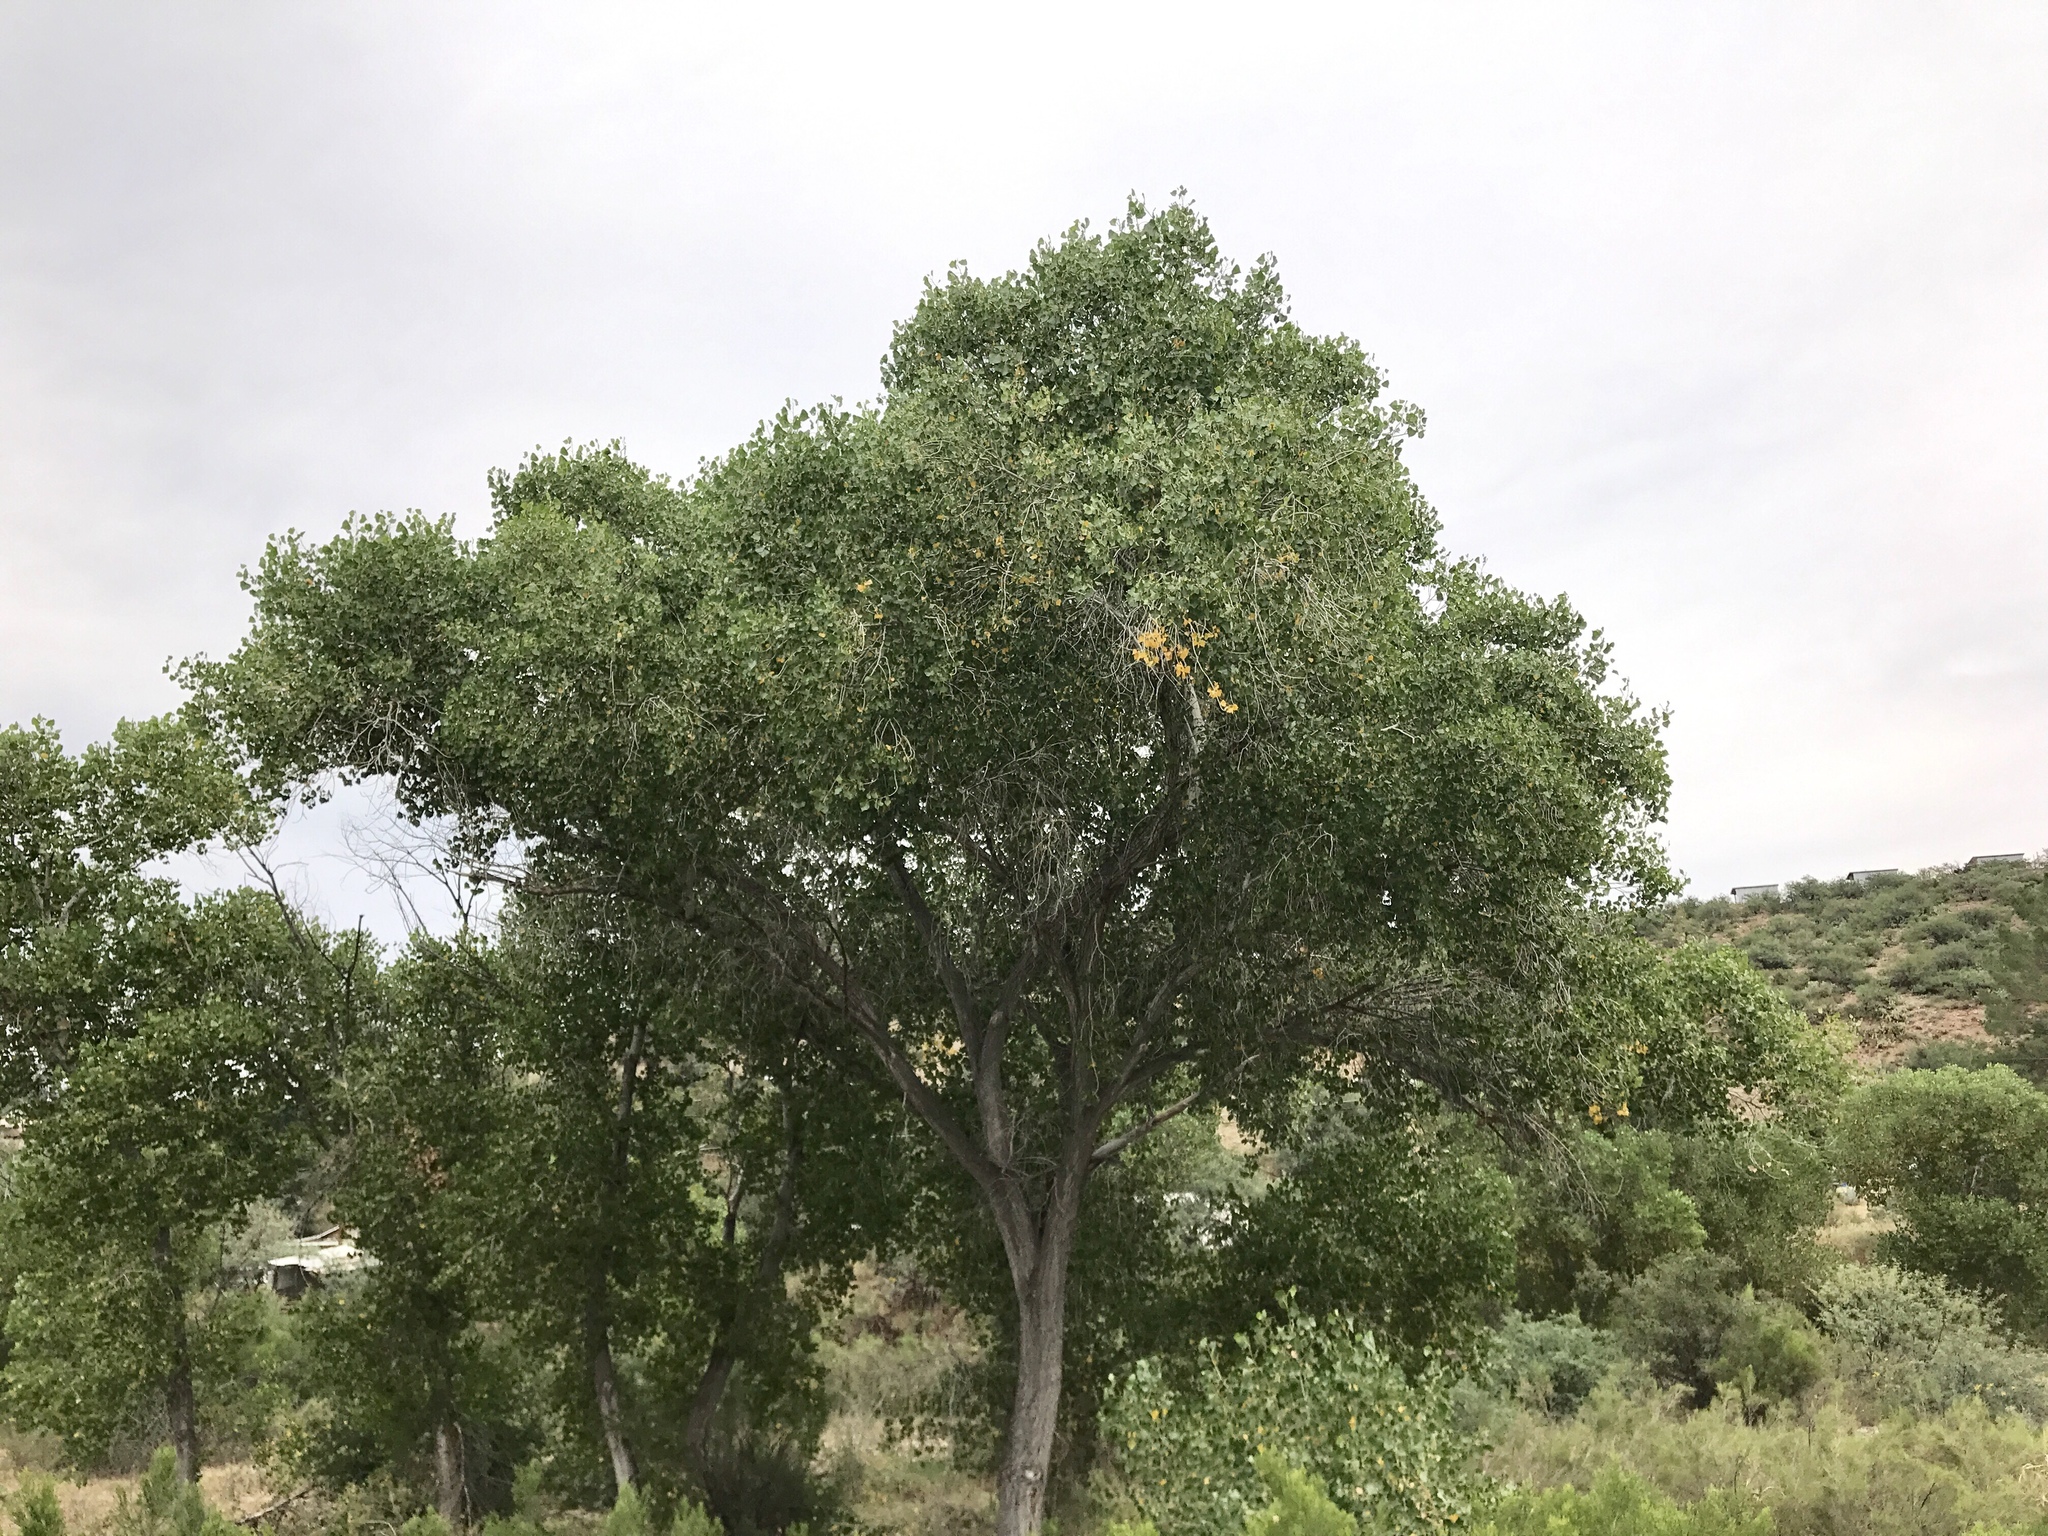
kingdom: Plantae
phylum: Tracheophyta
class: Magnoliopsida
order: Malpighiales
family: Salicaceae
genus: Populus
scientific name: Populus fremontii
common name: Fremont's cottonwood
